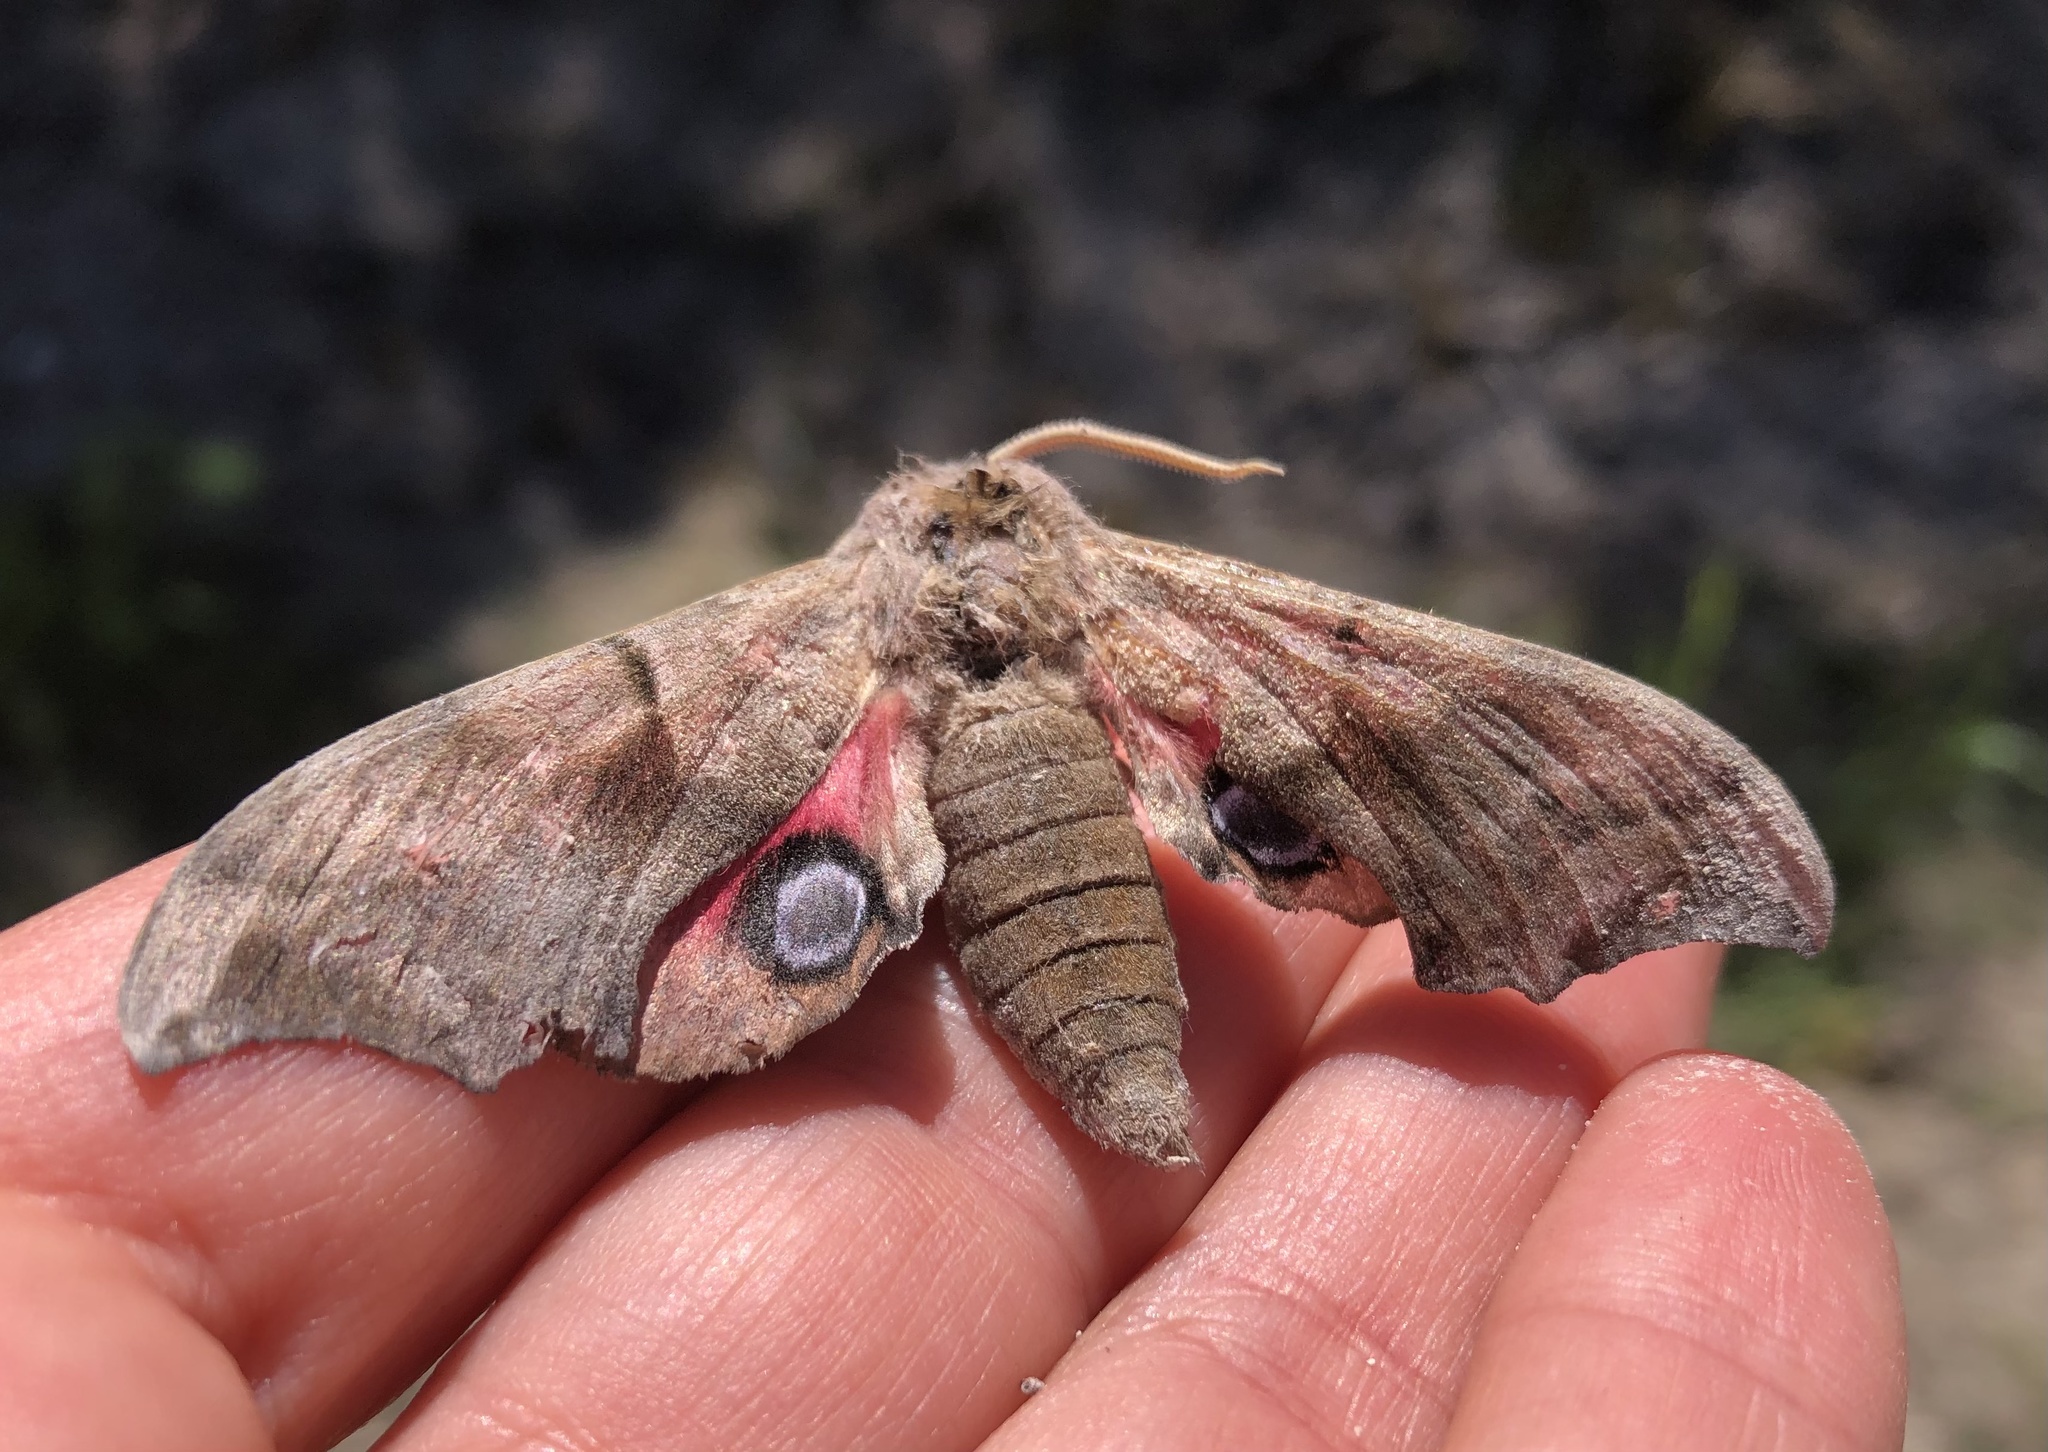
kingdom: Animalia
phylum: Arthropoda
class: Insecta
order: Lepidoptera
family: Sphingidae
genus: Smerinthus
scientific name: Smerinthus ocellata
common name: Eyed hawk-moth
